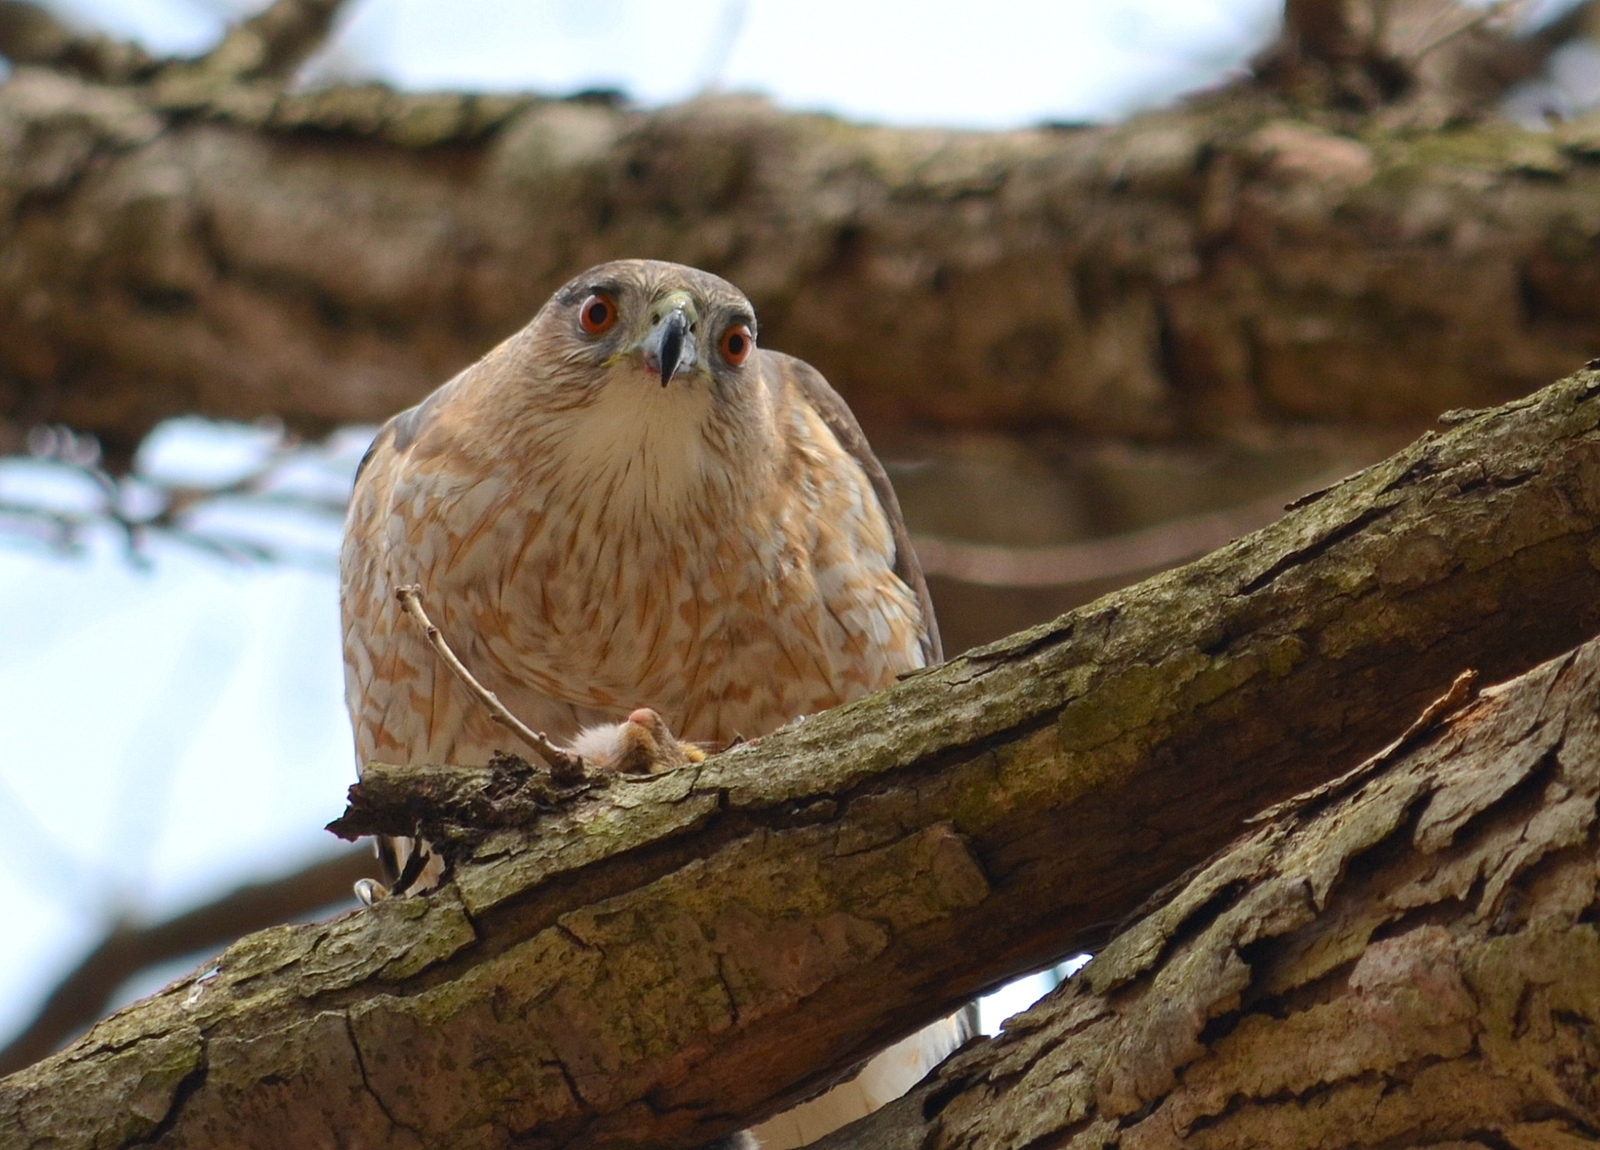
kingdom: Animalia
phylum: Chordata
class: Aves
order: Accipitriformes
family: Accipitridae
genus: Accipiter
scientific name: Accipiter cooperii
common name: Cooper's hawk
